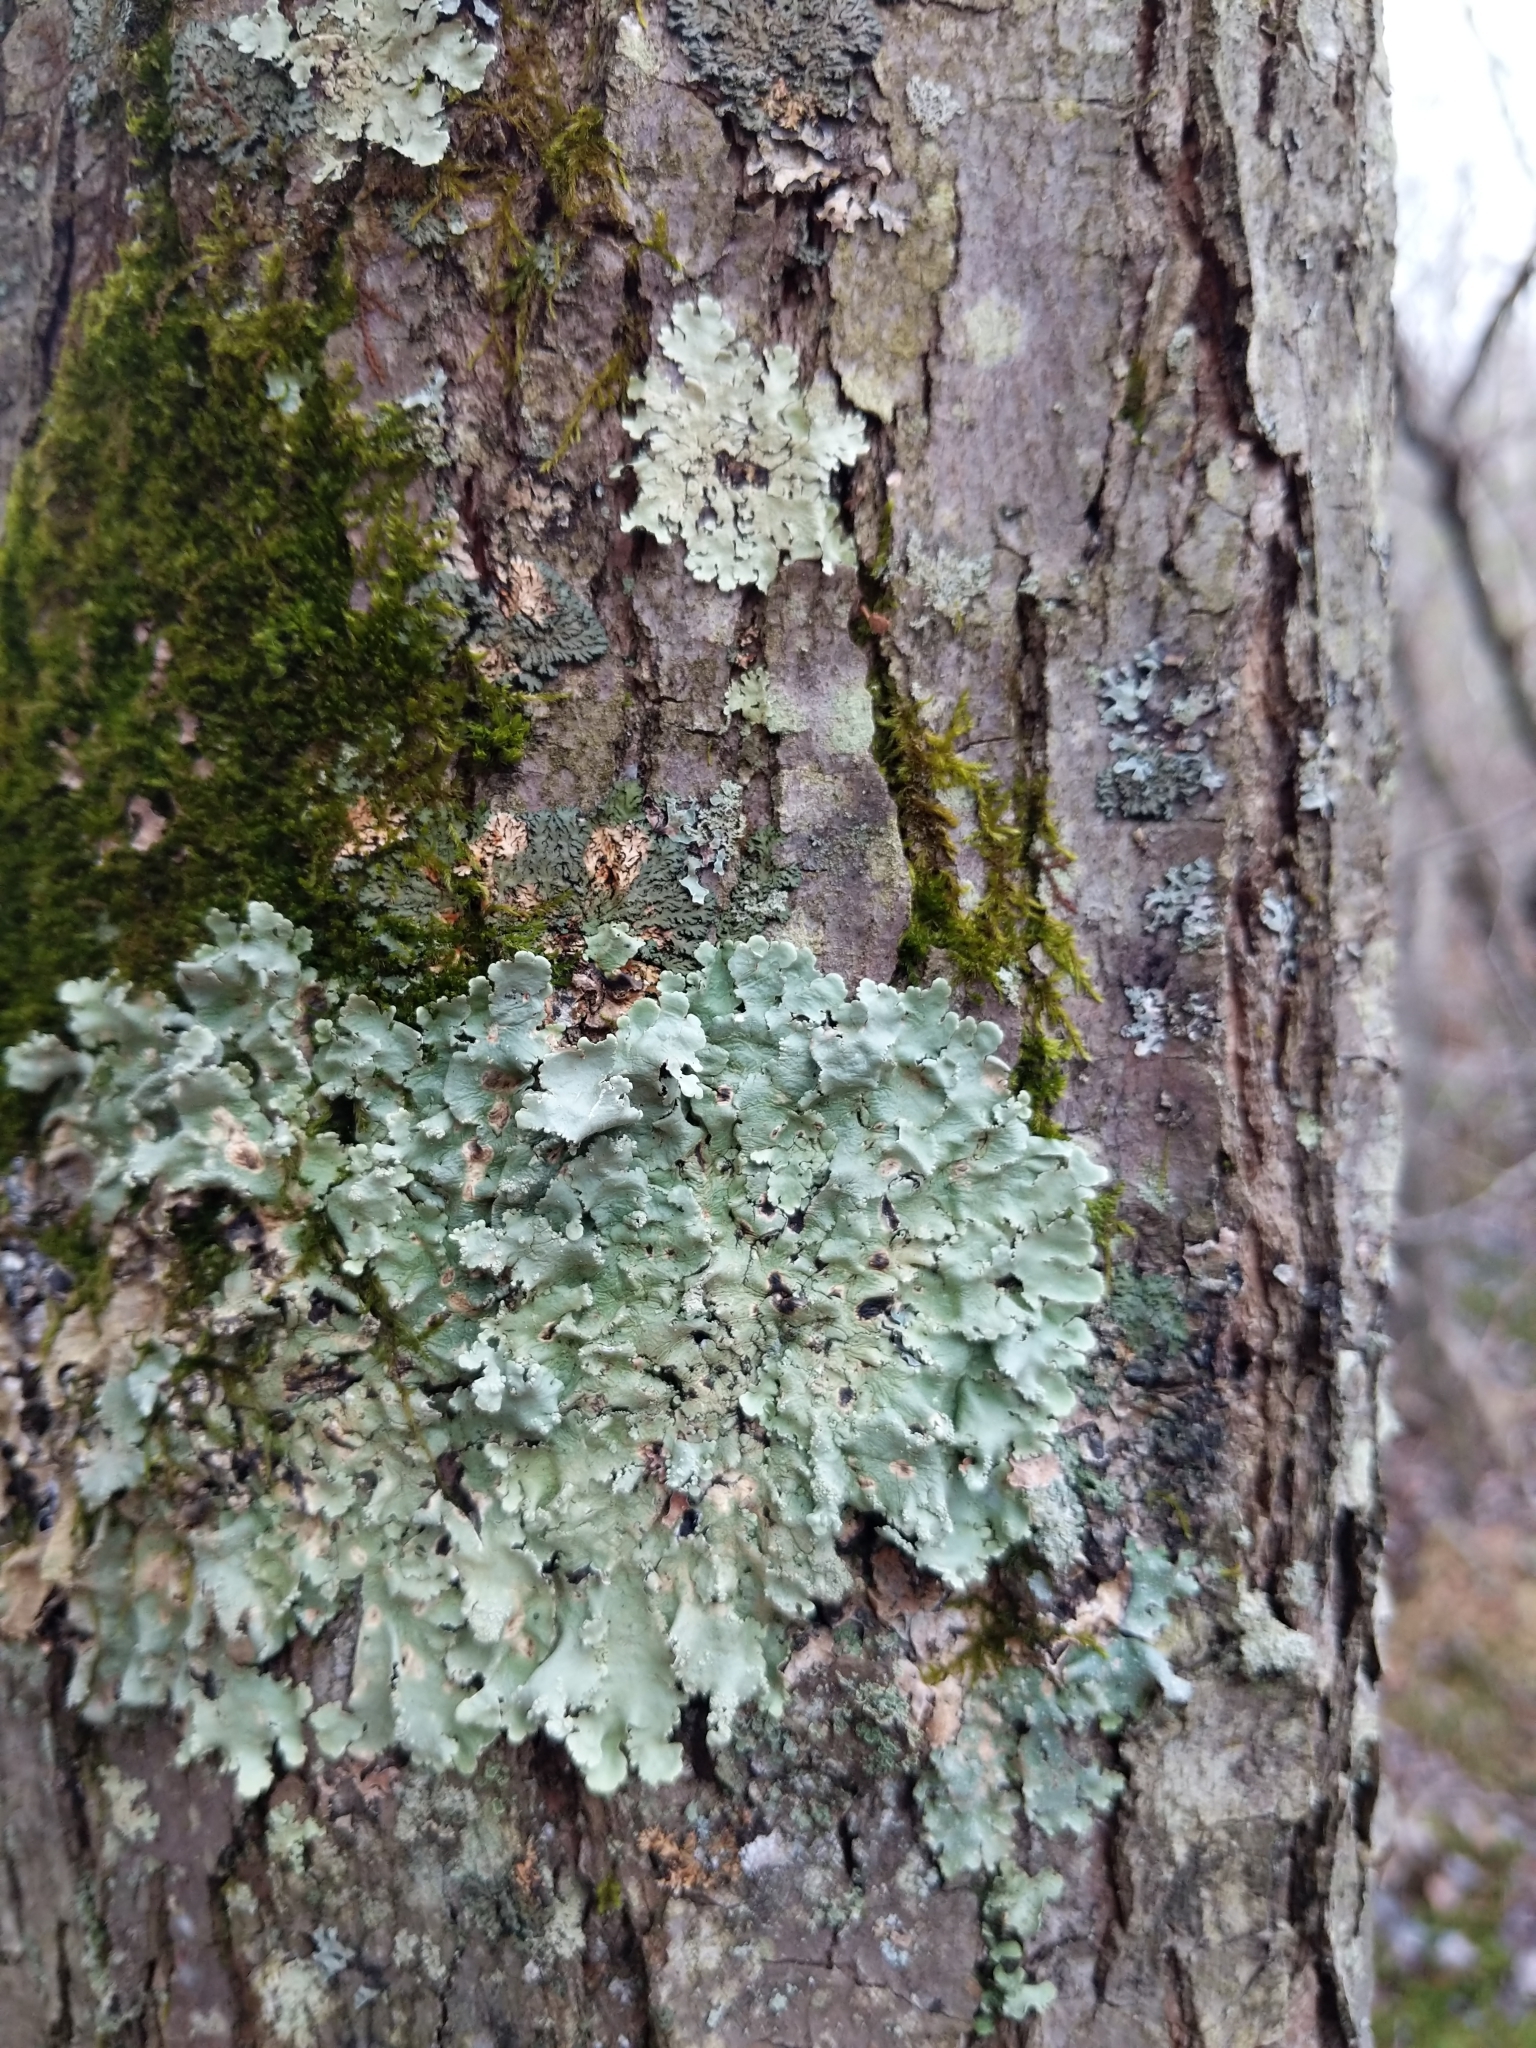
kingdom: Fungi
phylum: Ascomycota
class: Lecanoromycetes
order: Lecanorales
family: Parmeliaceae
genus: Flavoparmelia
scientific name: Flavoparmelia caperata
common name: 40-mile per hour lichen
